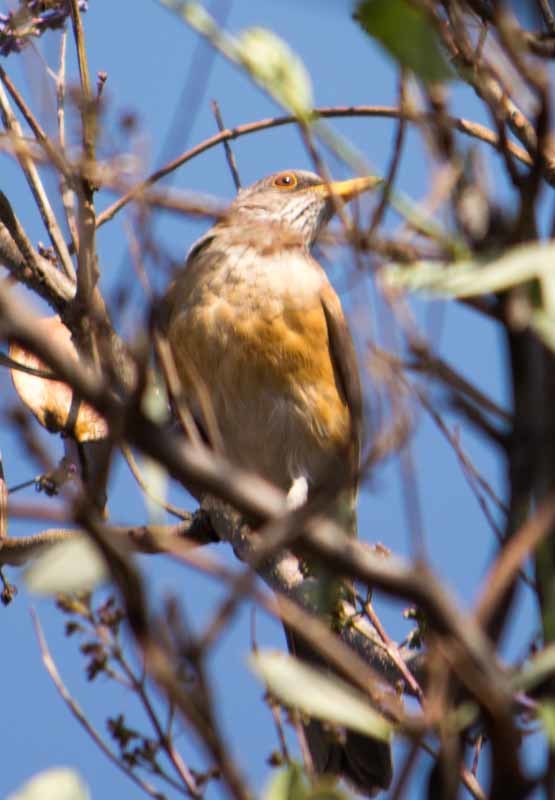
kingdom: Animalia
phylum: Chordata
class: Aves
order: Passeriformes
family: Turdidae
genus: Turdus
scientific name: Turdus rufopalliatus
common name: Rufous-backed robin
